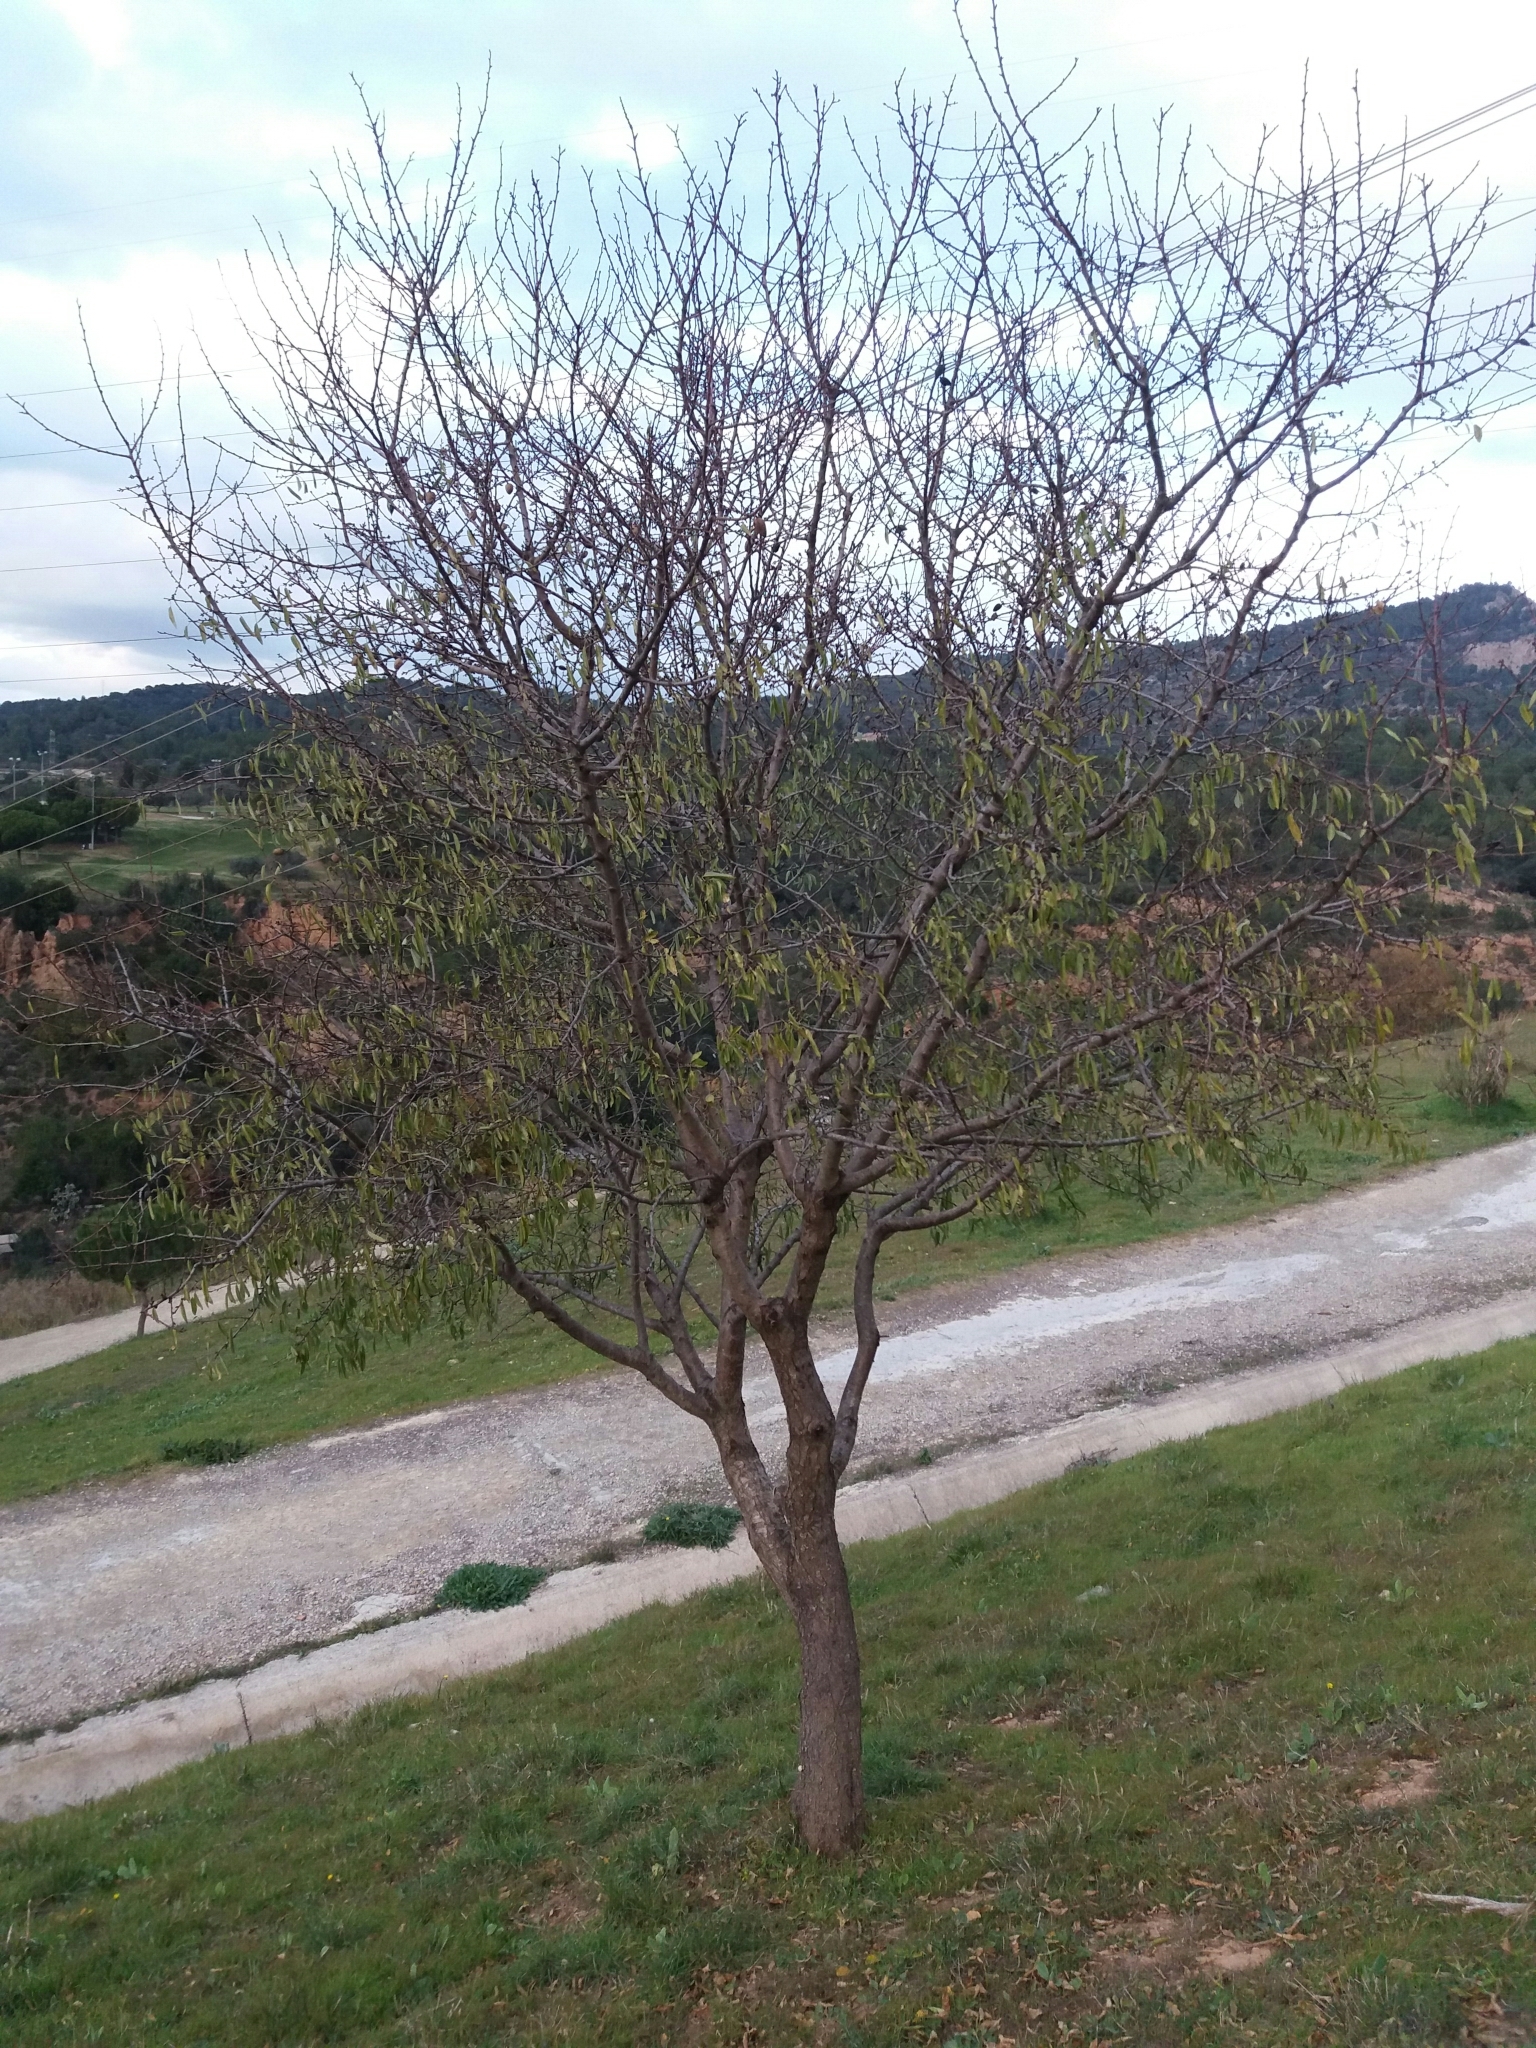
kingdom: Plantae
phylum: Tracheophyta
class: Magnoliopsida
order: Rosales
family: Rosaceae
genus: Prunus
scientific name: Prunus amygdalus
